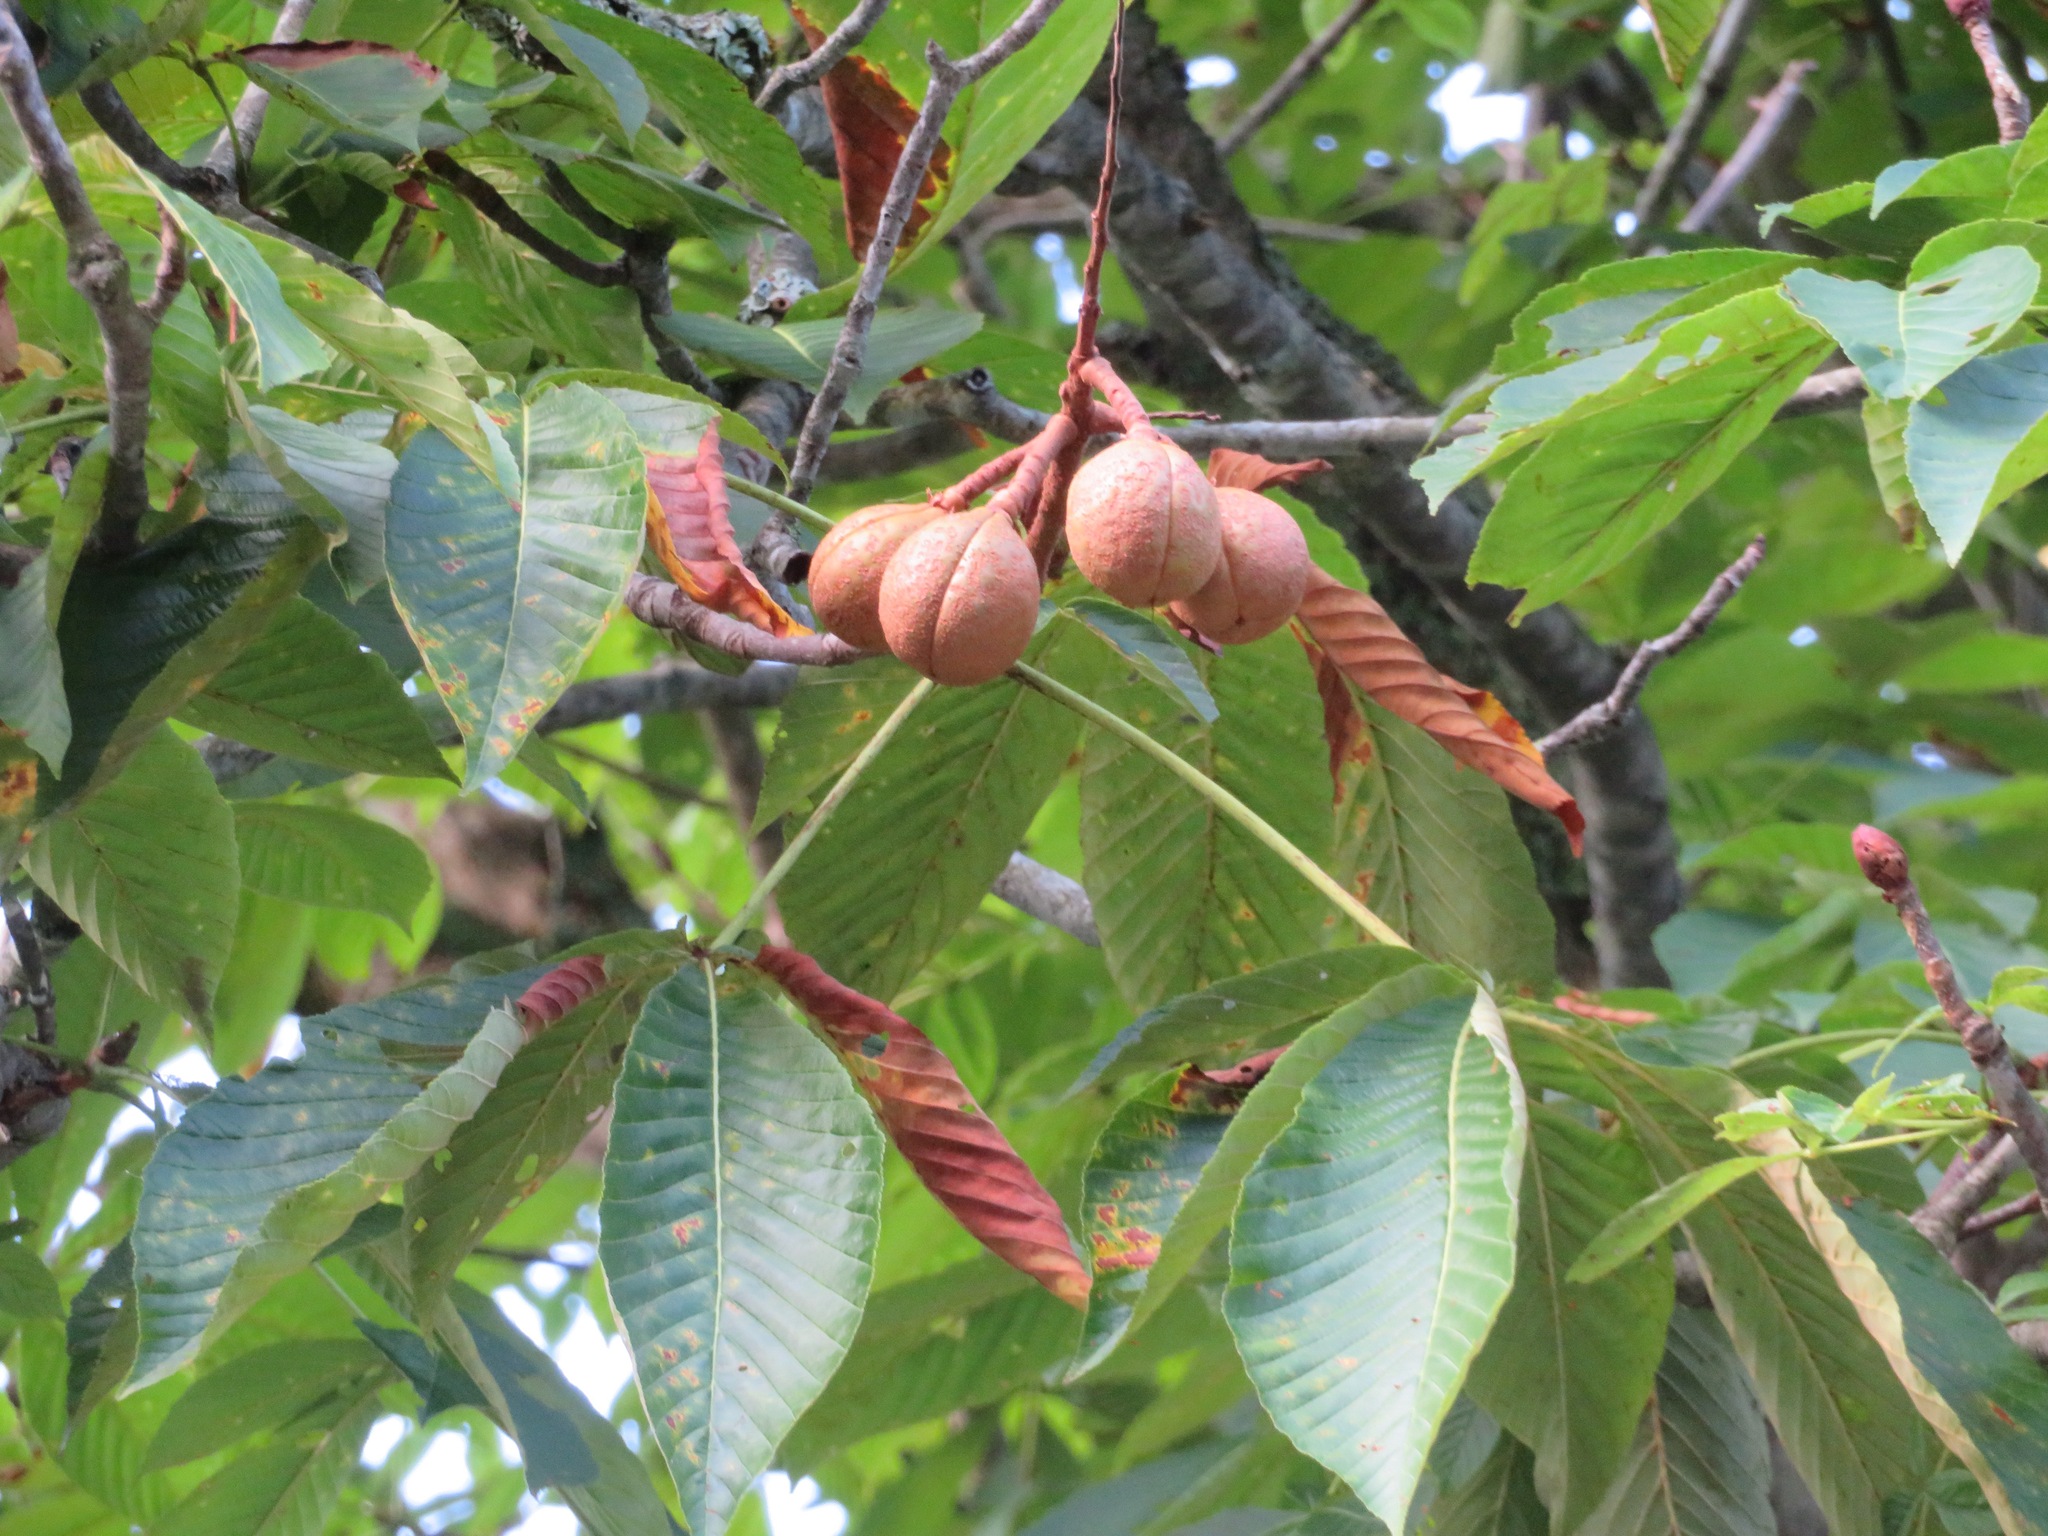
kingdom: Plantae
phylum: Tracheophyta
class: Magnoliopsida
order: Sapindales
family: Sapindaceae
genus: Aesculus
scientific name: Aesculus turbinata
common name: Japanese horse-chestnut
